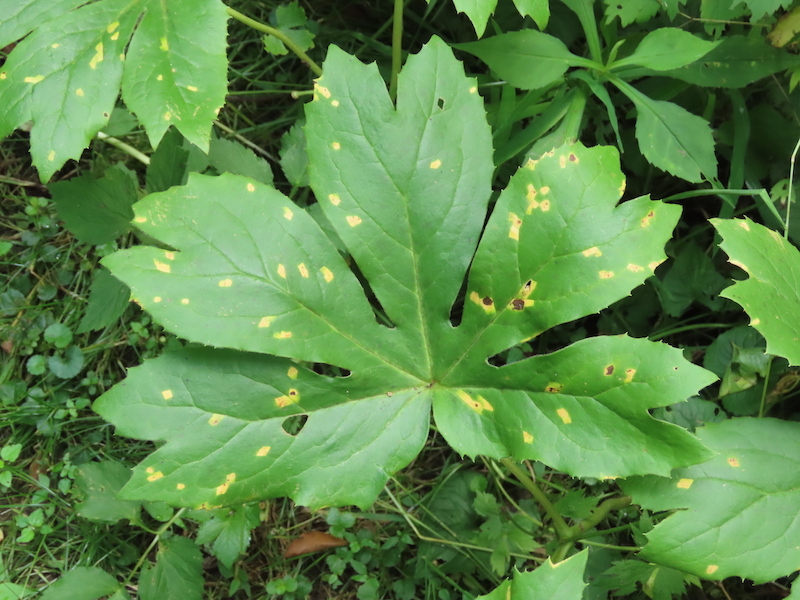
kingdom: Fungi
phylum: Basidiomycota
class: Pucciniomycetes
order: Pucciniales
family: Pucciniaceae
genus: Puccinia
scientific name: Puccinia podophylli
